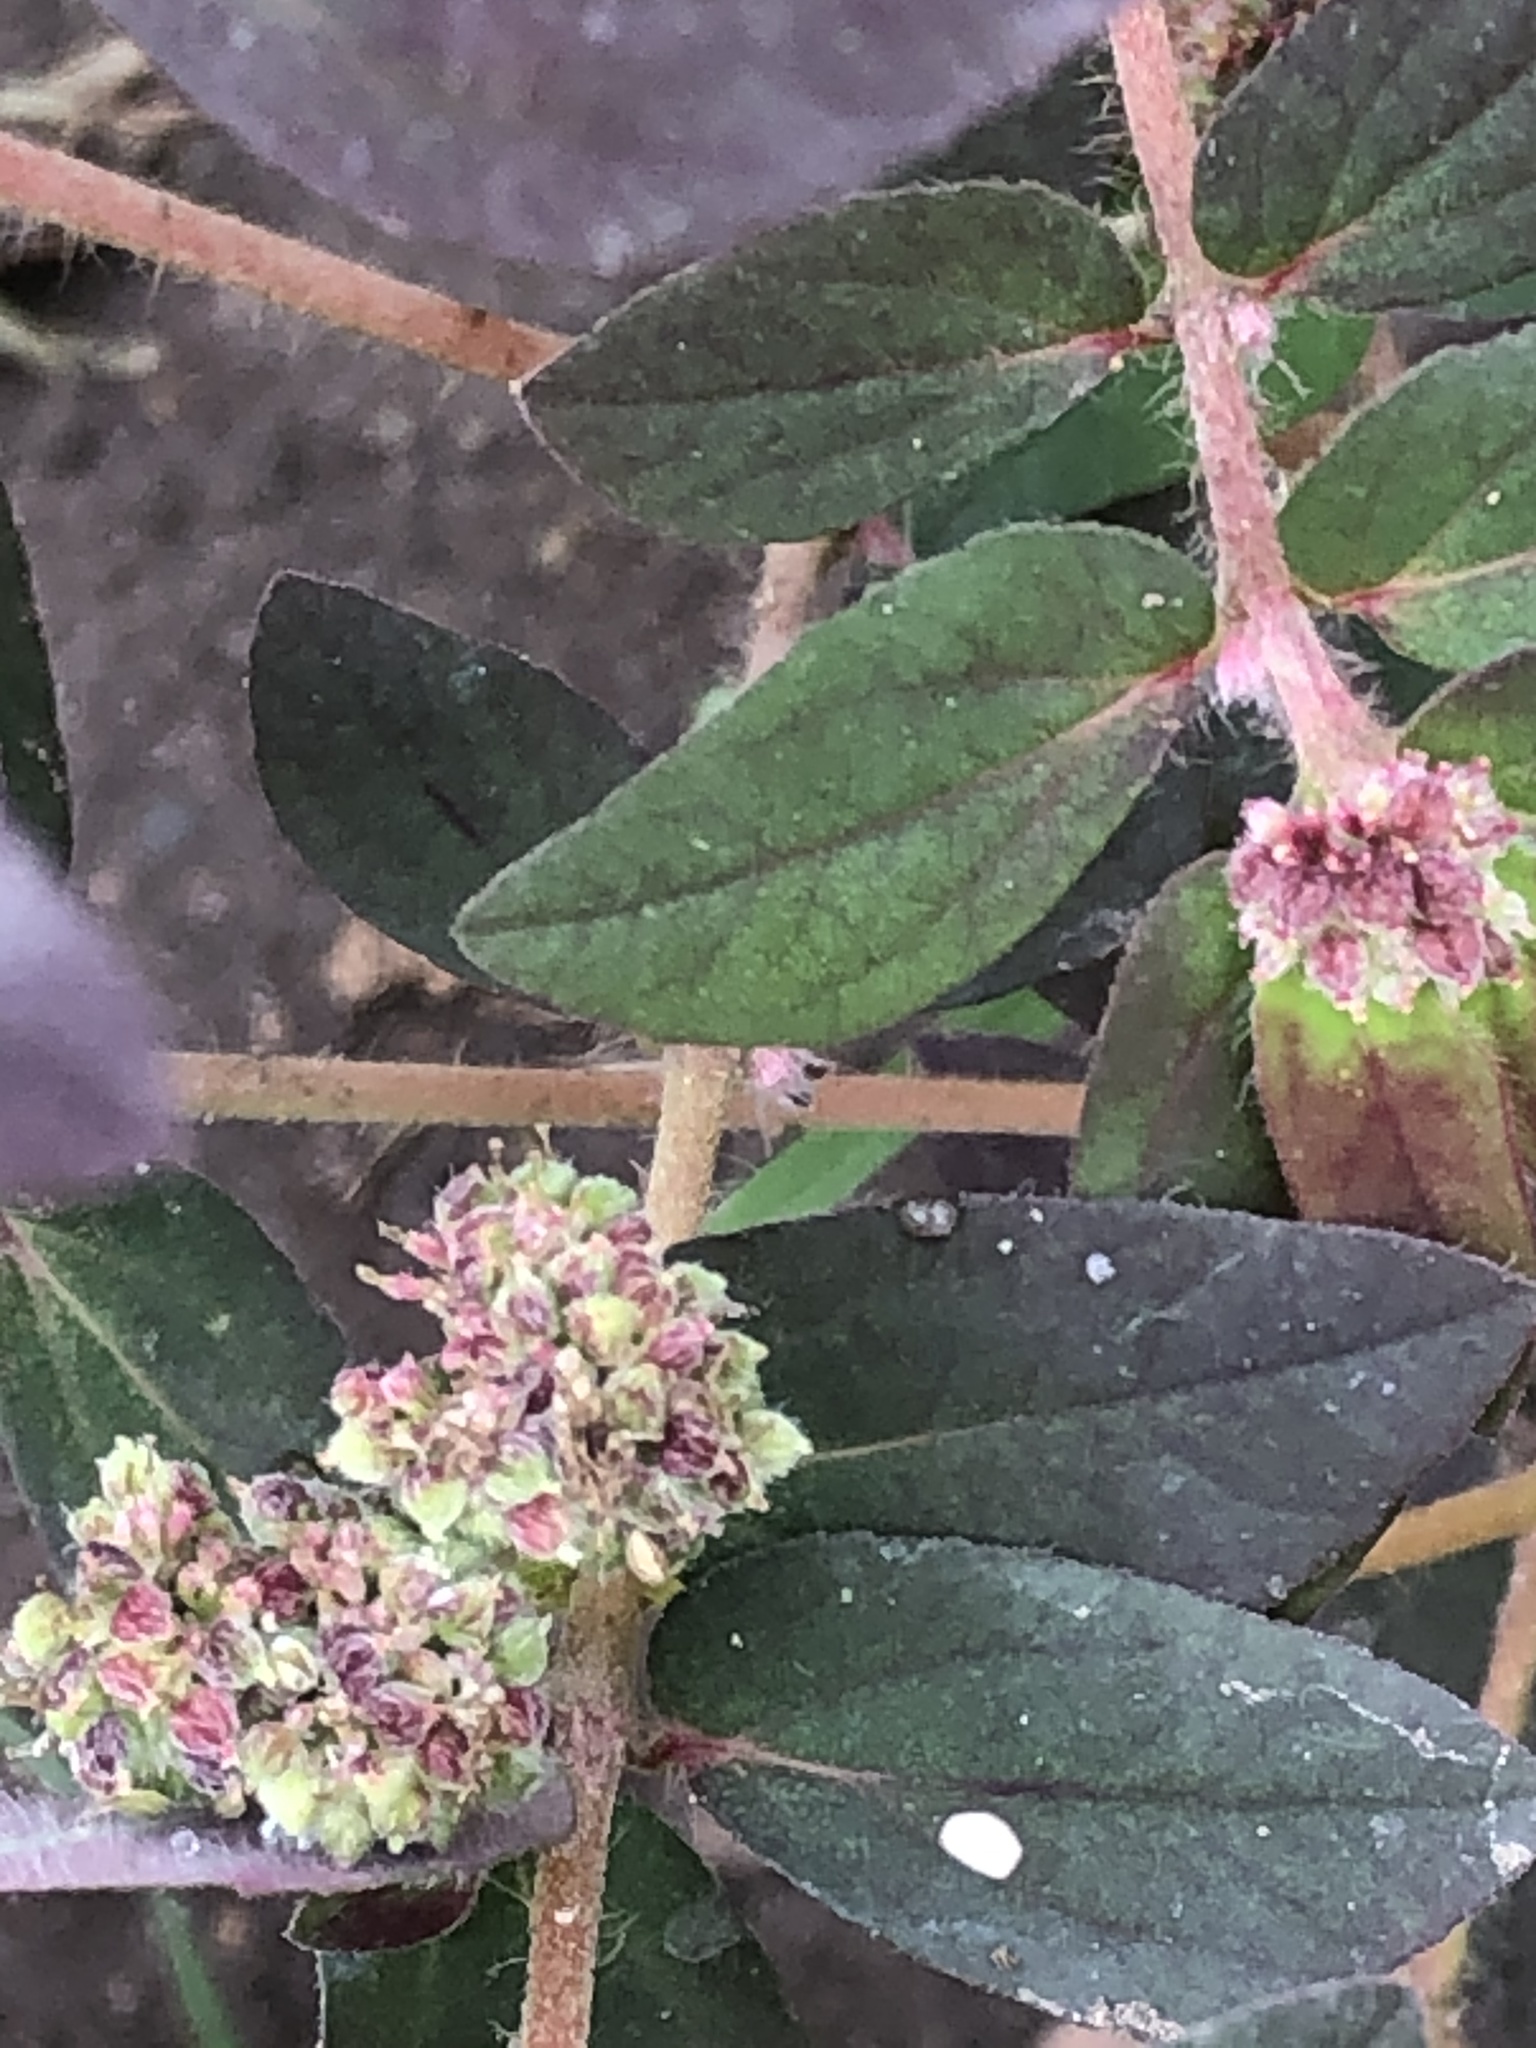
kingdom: Plantae
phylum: Tracheophyta
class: Magnoliopsida
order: Malpighiales
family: Euphorbiaceae
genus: Euphorbia
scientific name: Euphorbia ophthalmica
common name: Florida hammock sandmat
